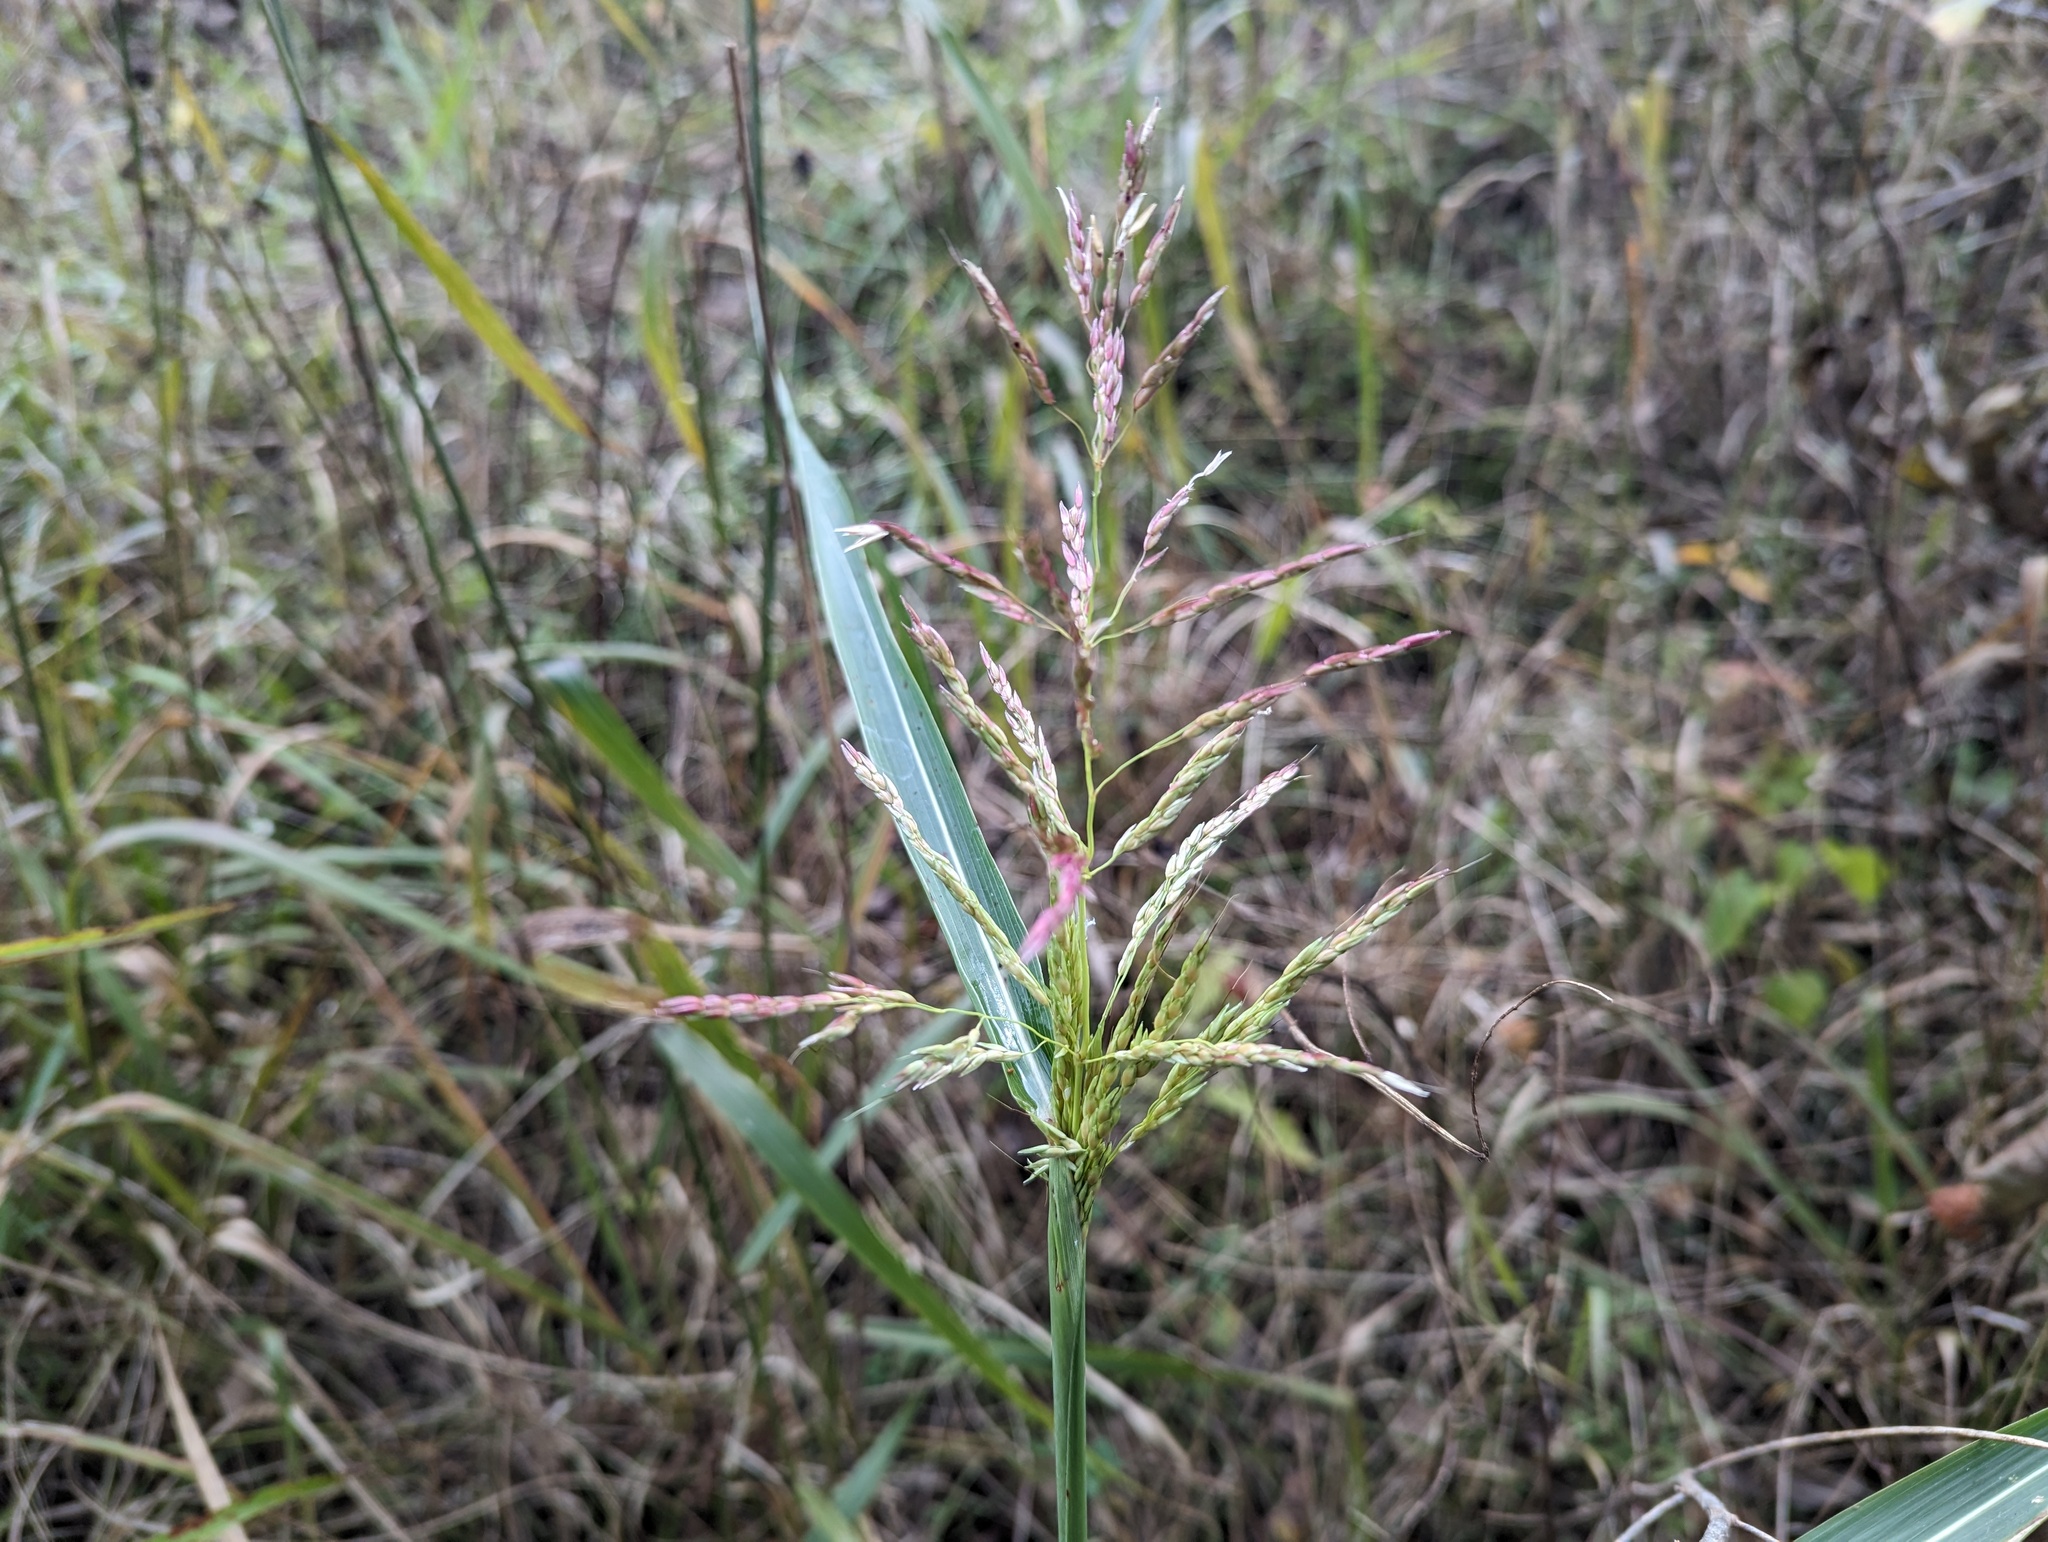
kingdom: Plantae
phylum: Tracheophyta
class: Liliopsida
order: Poales
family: Poaceae
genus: Sorghum
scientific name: Sorghum halepense
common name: Johnson-grass
